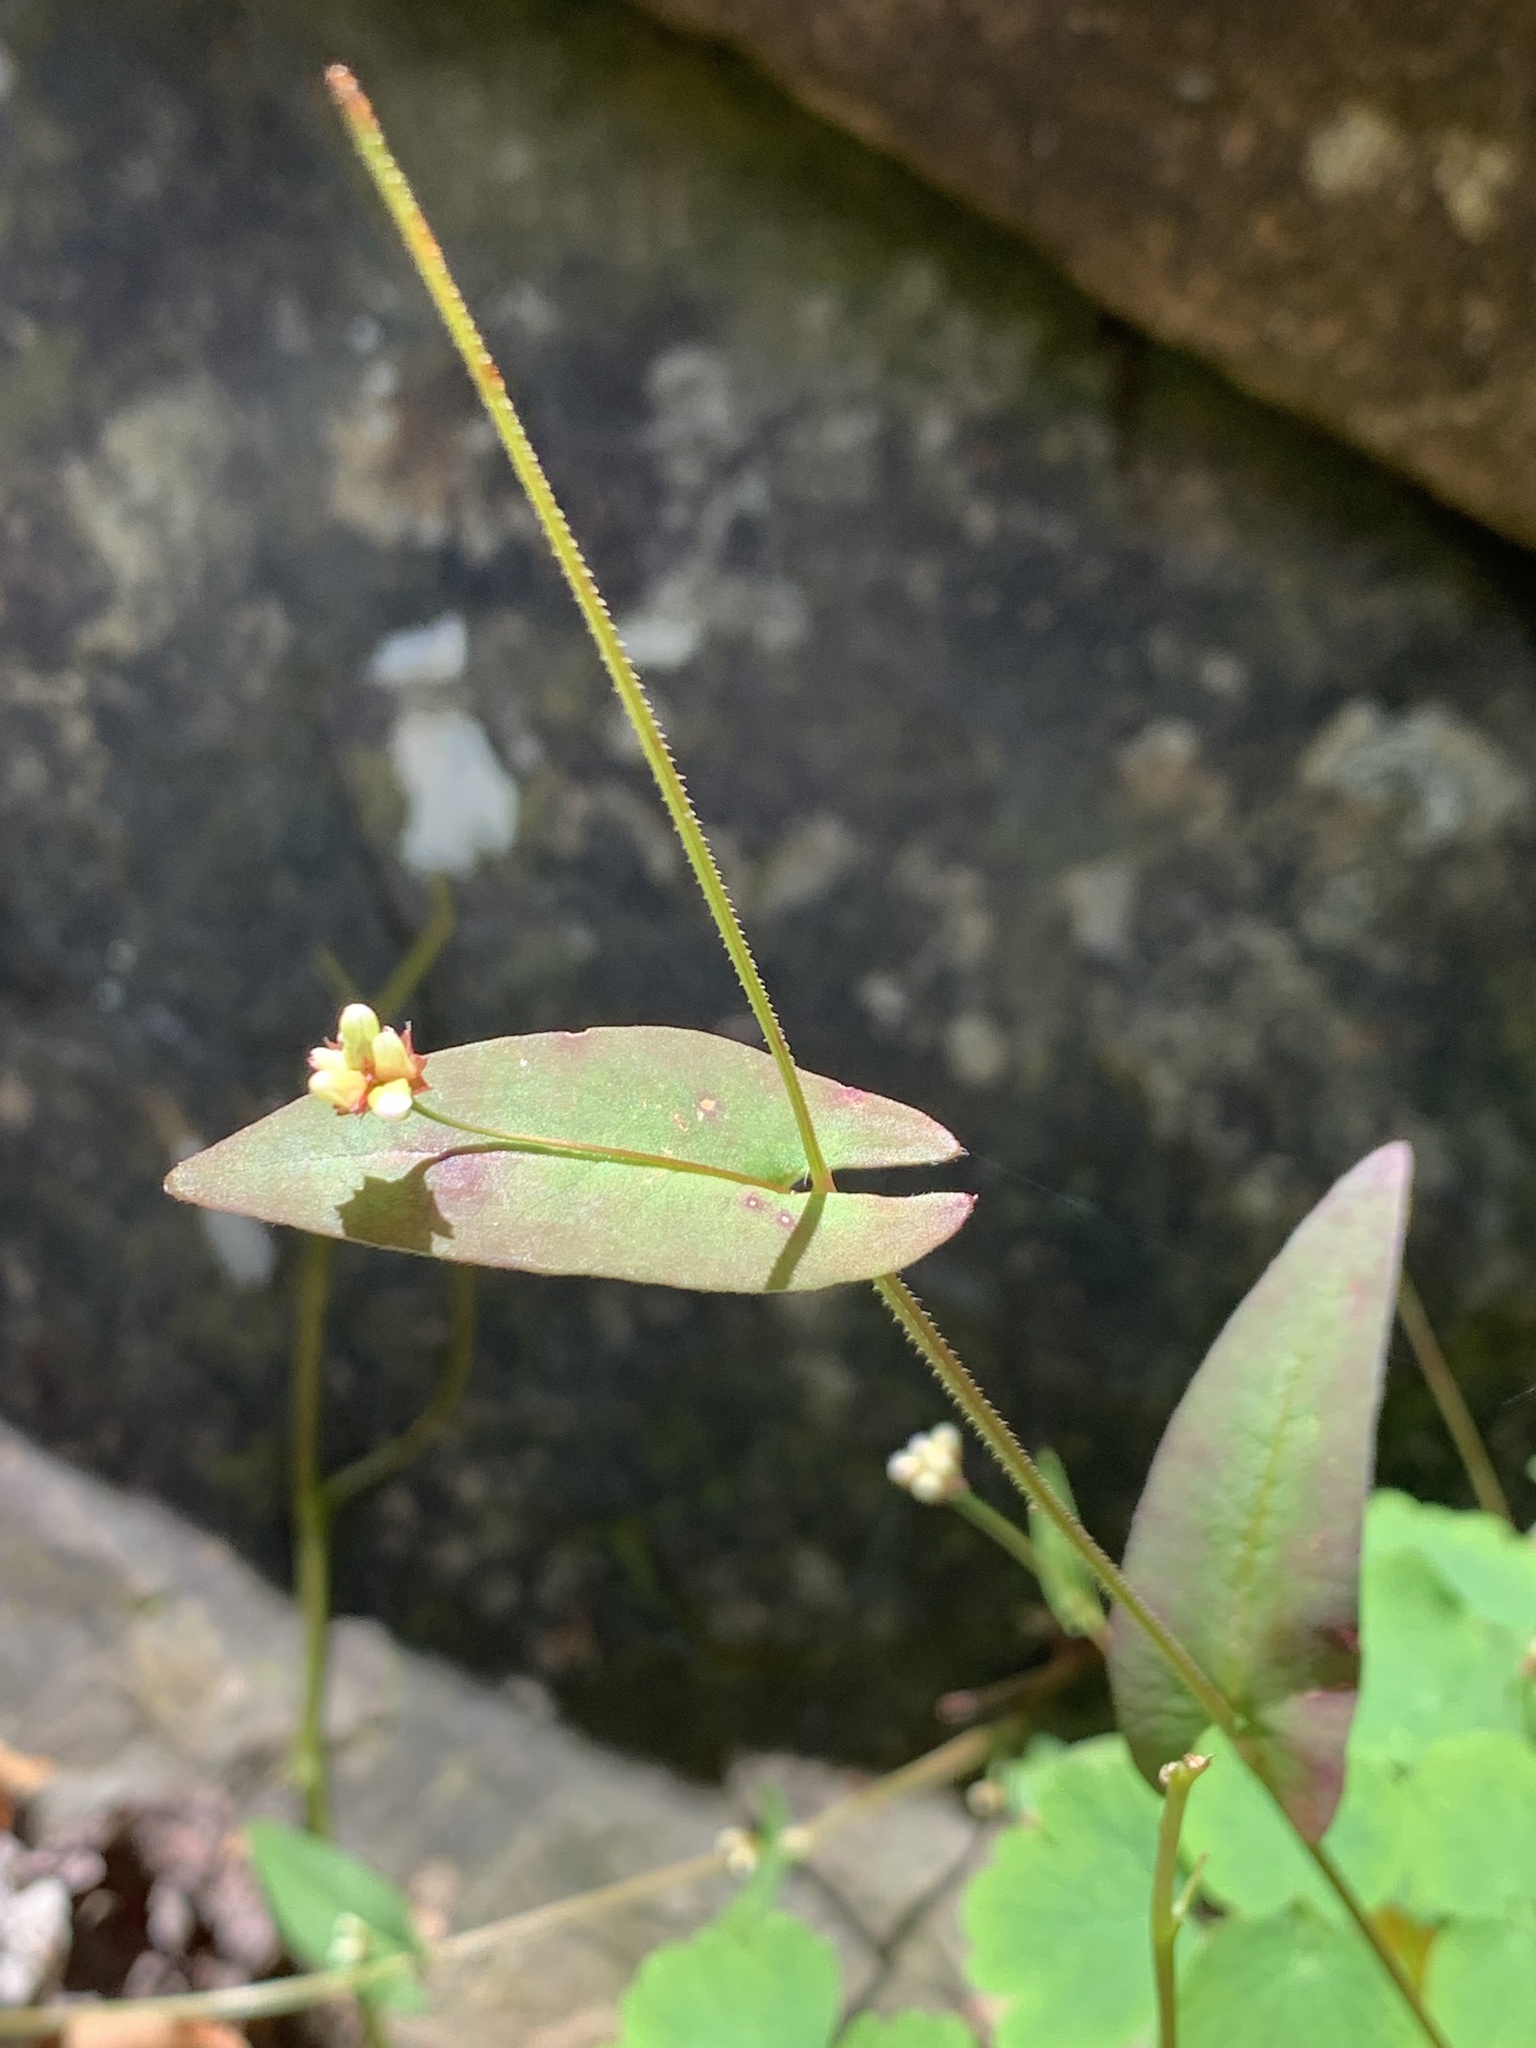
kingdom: Plantae
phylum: Tracheophyta
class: Magnoliopsida
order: Caryophyllales
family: Polygonaceae
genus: Persicaria
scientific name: Persicaria sagittata
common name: American tearthumb
